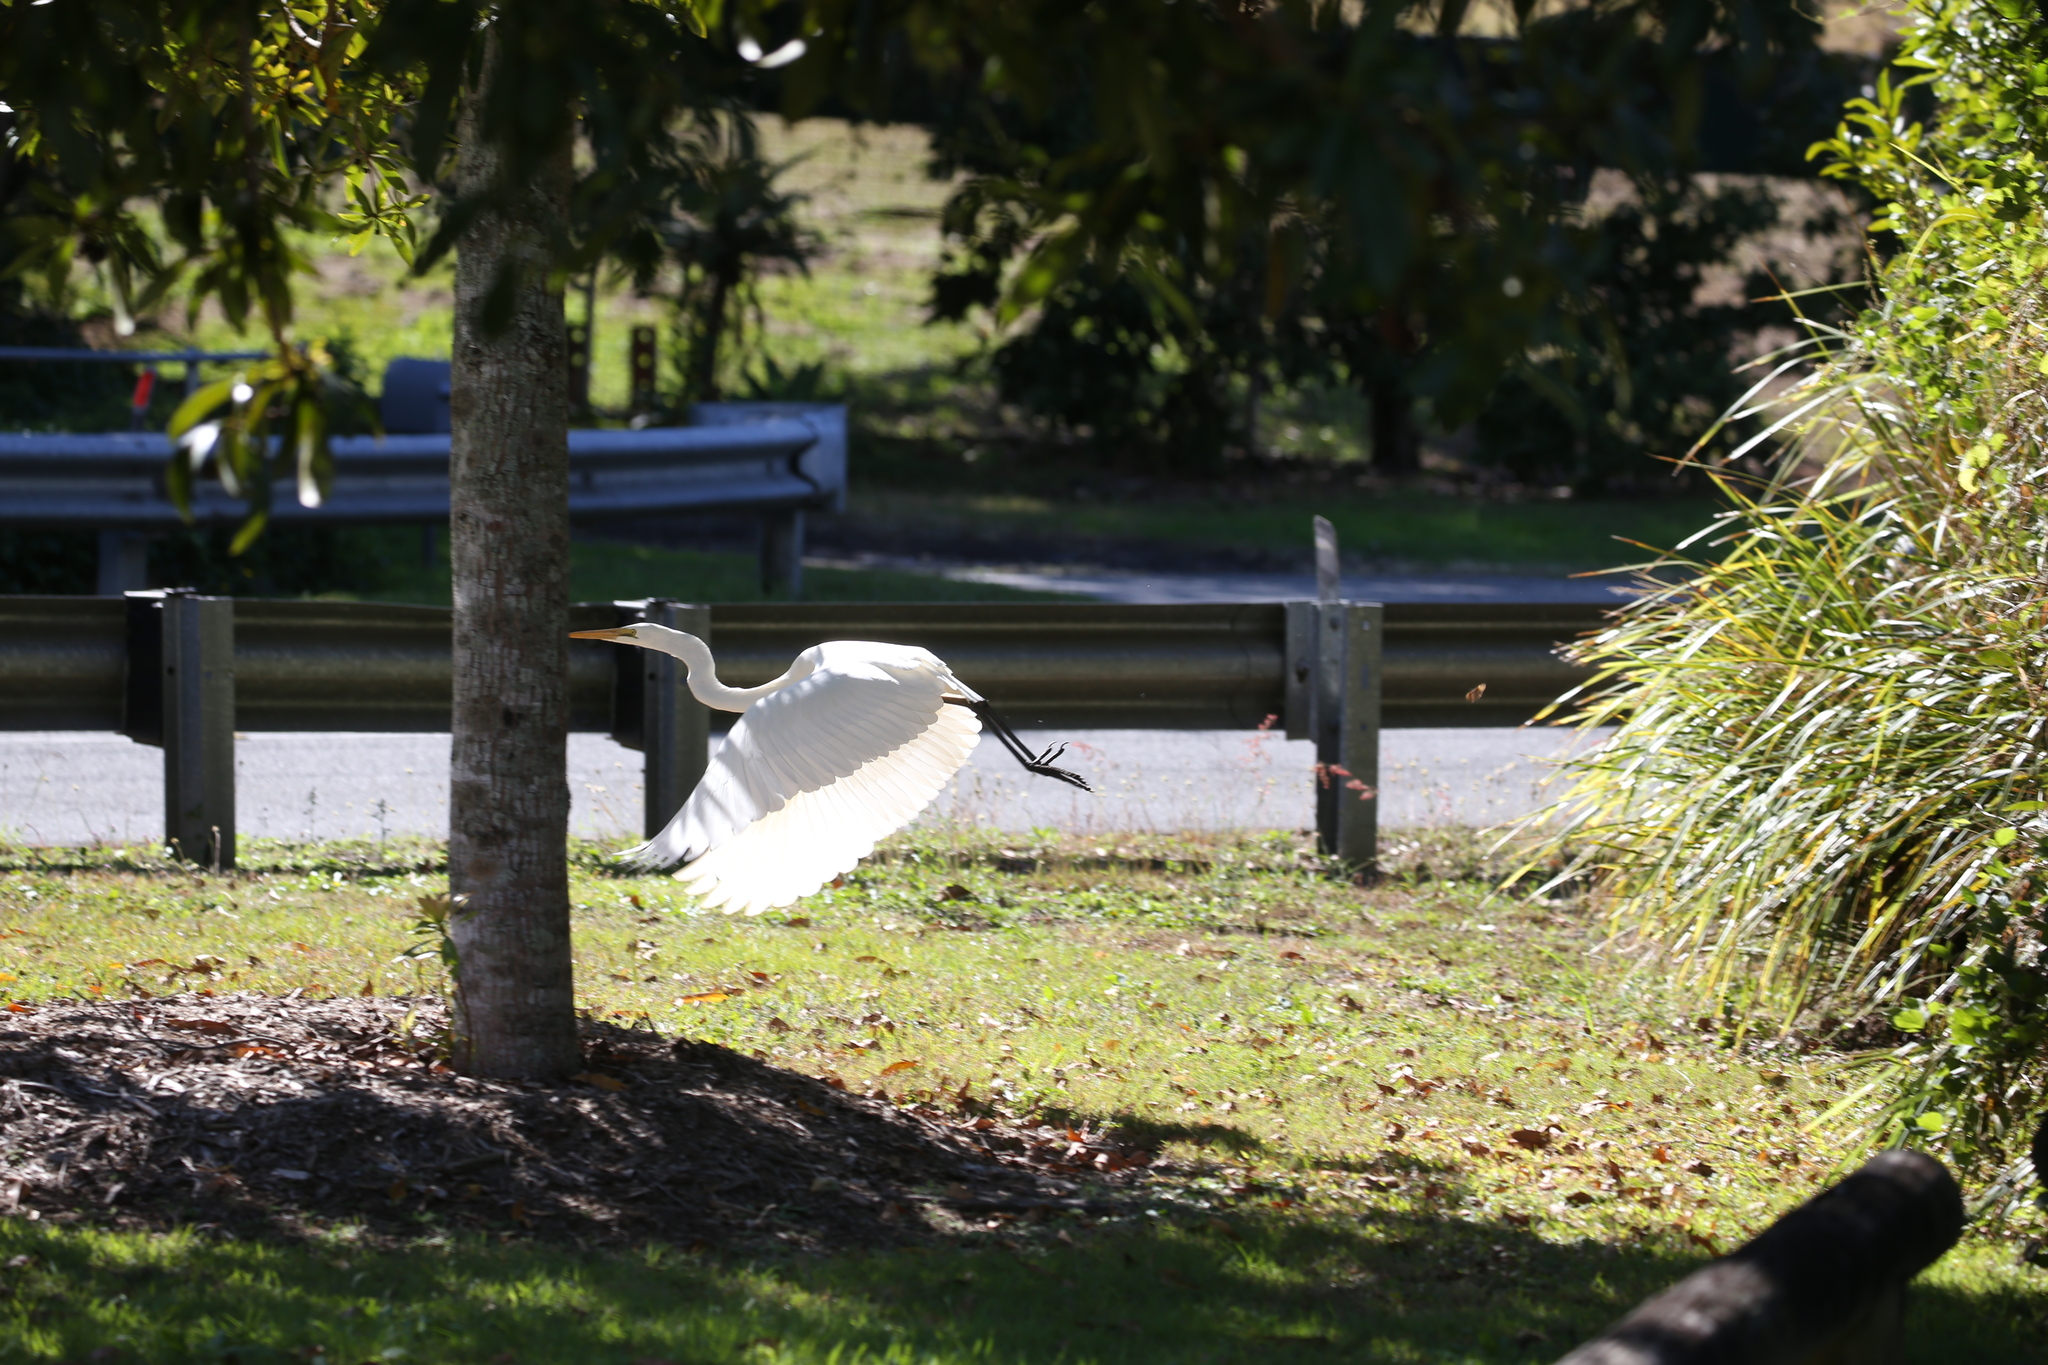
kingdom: Animalia
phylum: Chordata
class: Aves
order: Pelecaniformes
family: Ardeidae
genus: Ardea
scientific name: Ardea alba
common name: Great egret
